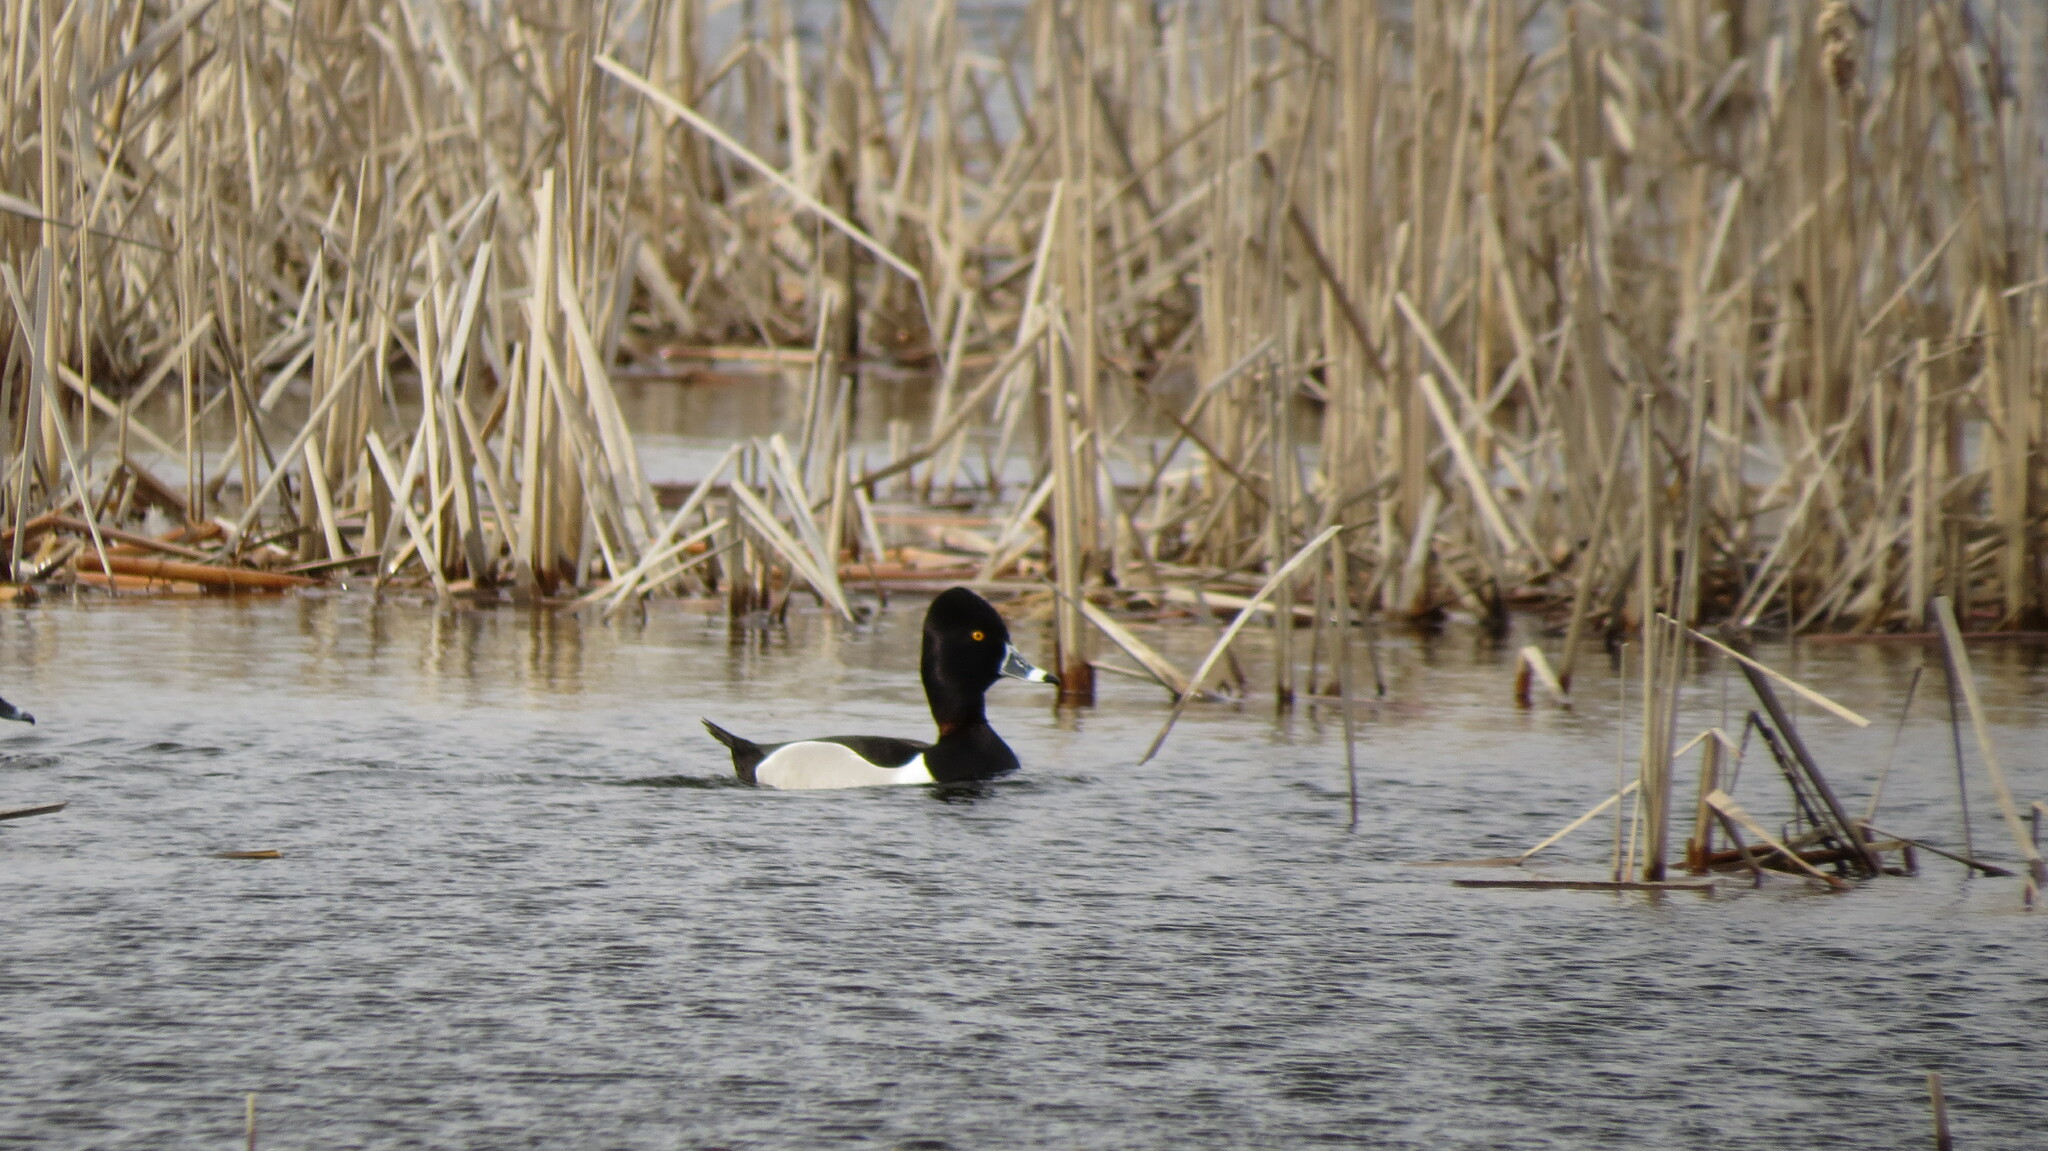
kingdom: Animalia
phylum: Chordata
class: Aves
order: Anseriformes
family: Anatidae
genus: Aythya
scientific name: Aythya collaris
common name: Ring-necked duck
